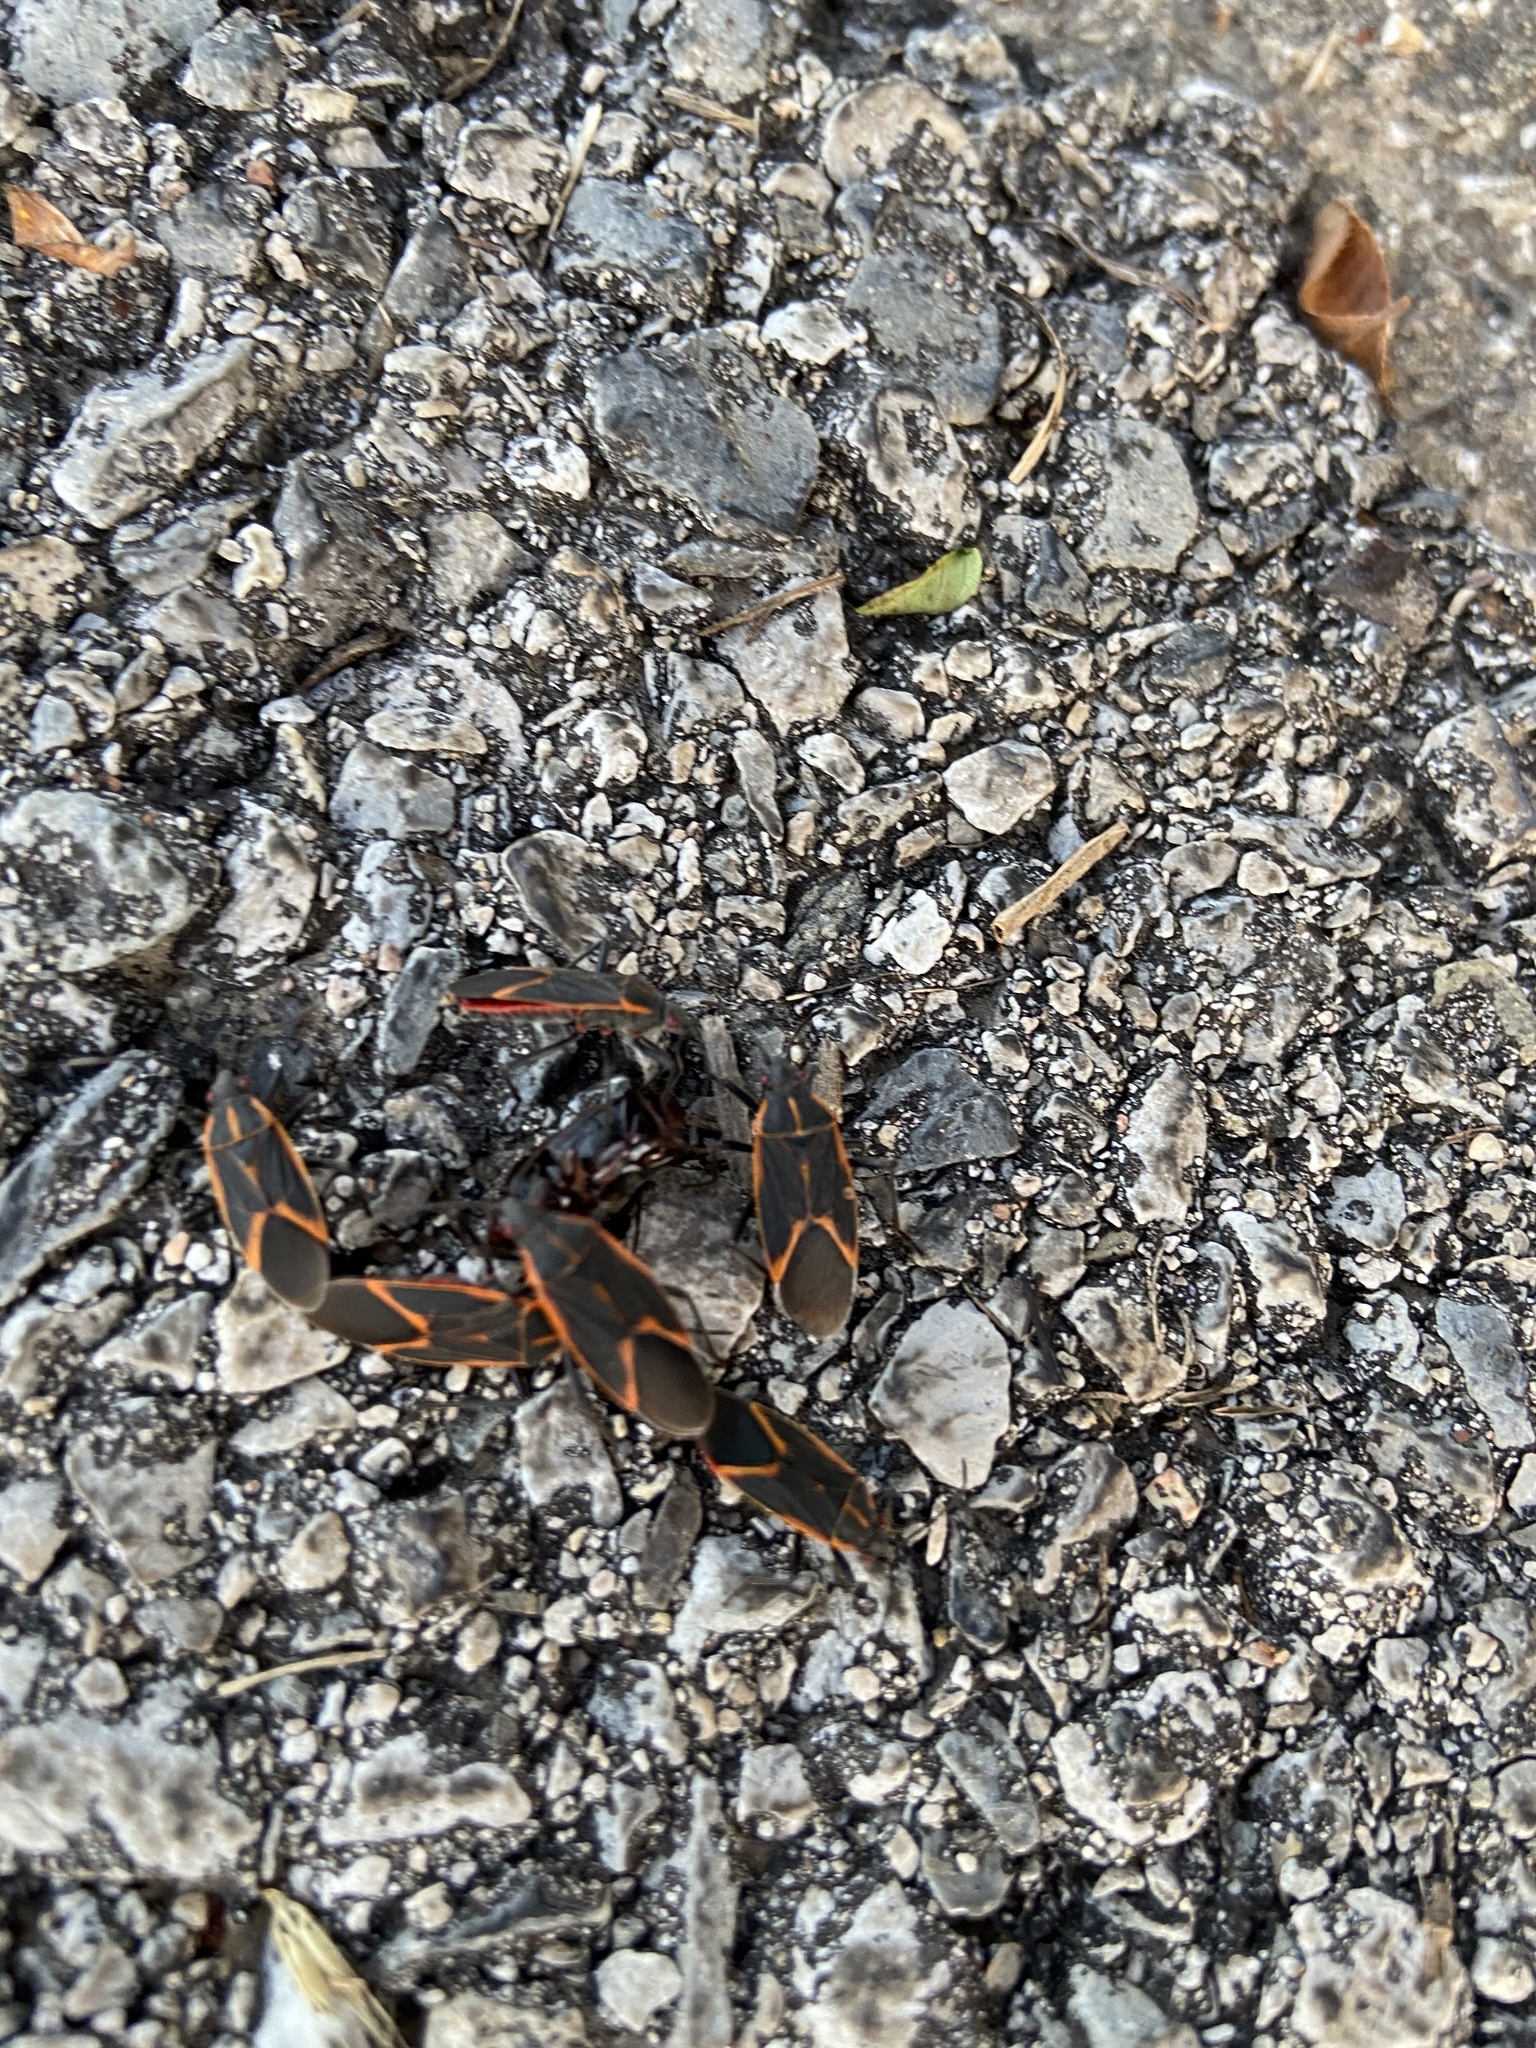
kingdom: Animalia
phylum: Arthropoda
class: Insecta
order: Hemiptera
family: Rhopalidae
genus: Boisea
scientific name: Boisea trivittata
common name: Boxelder bug
